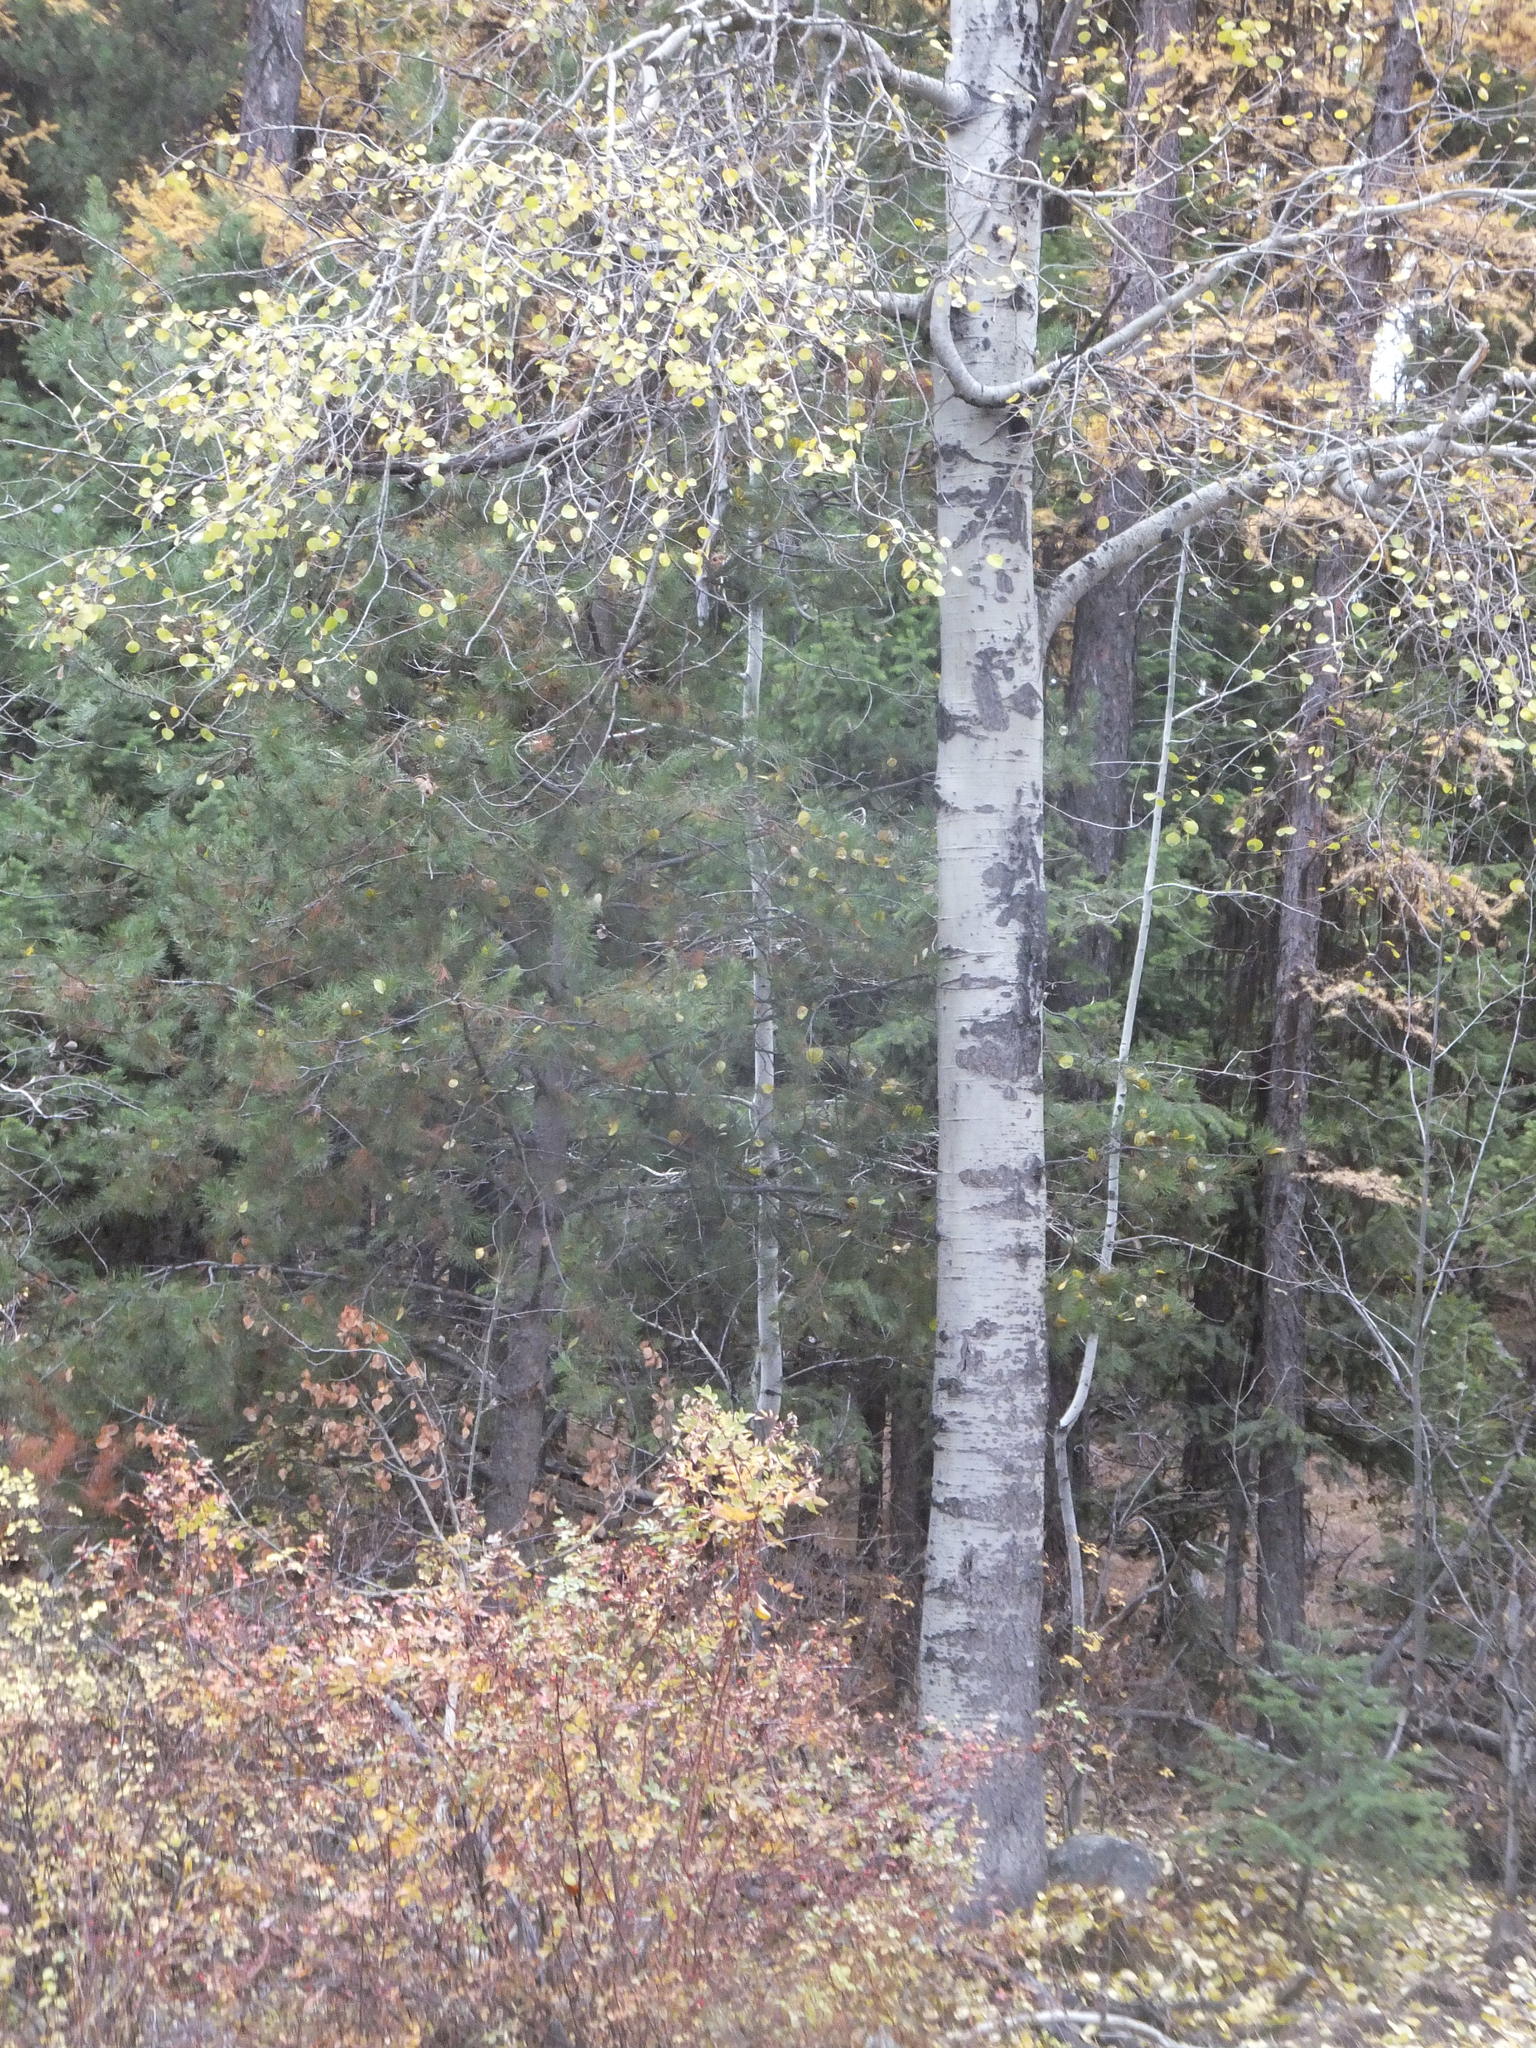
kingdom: Plantae
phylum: Tracheophyta
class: Magnoliopsida
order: Malpighiales
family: Salicaceae
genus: Populus
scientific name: Populus tremuloides
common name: Quaking aspen
